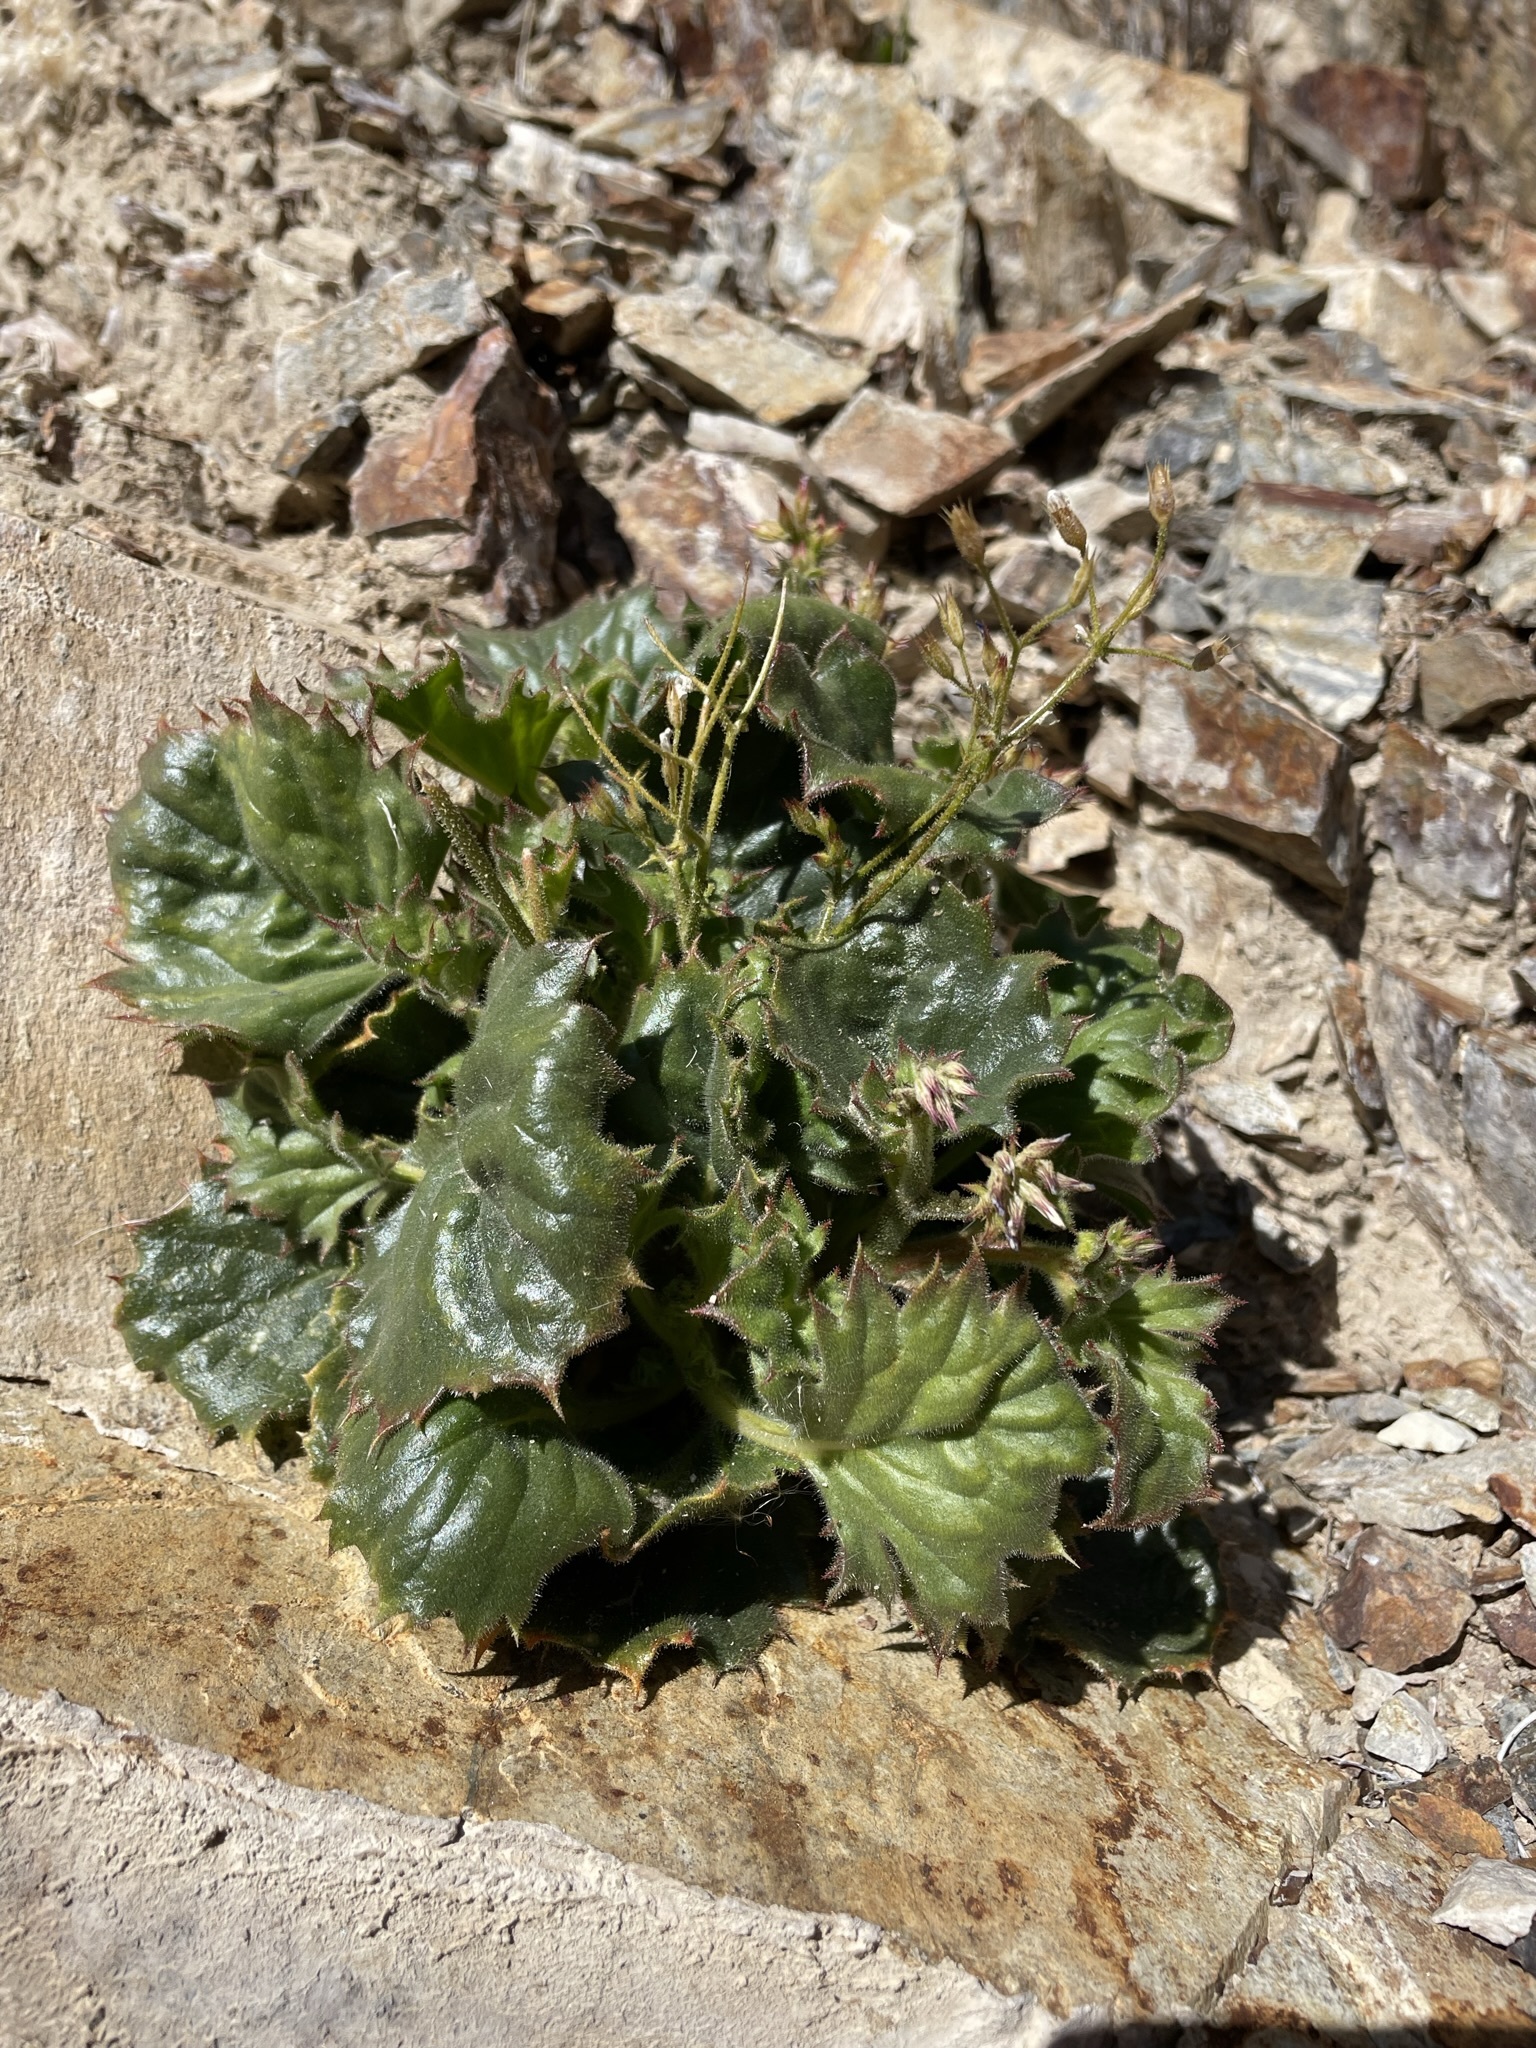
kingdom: Plantae
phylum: Tracheophyta
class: Magnoliopsida
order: Ericales
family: Polemoniaceae
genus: Aliciella
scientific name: Aliciella latifolia
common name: Broad-leaf gilia
